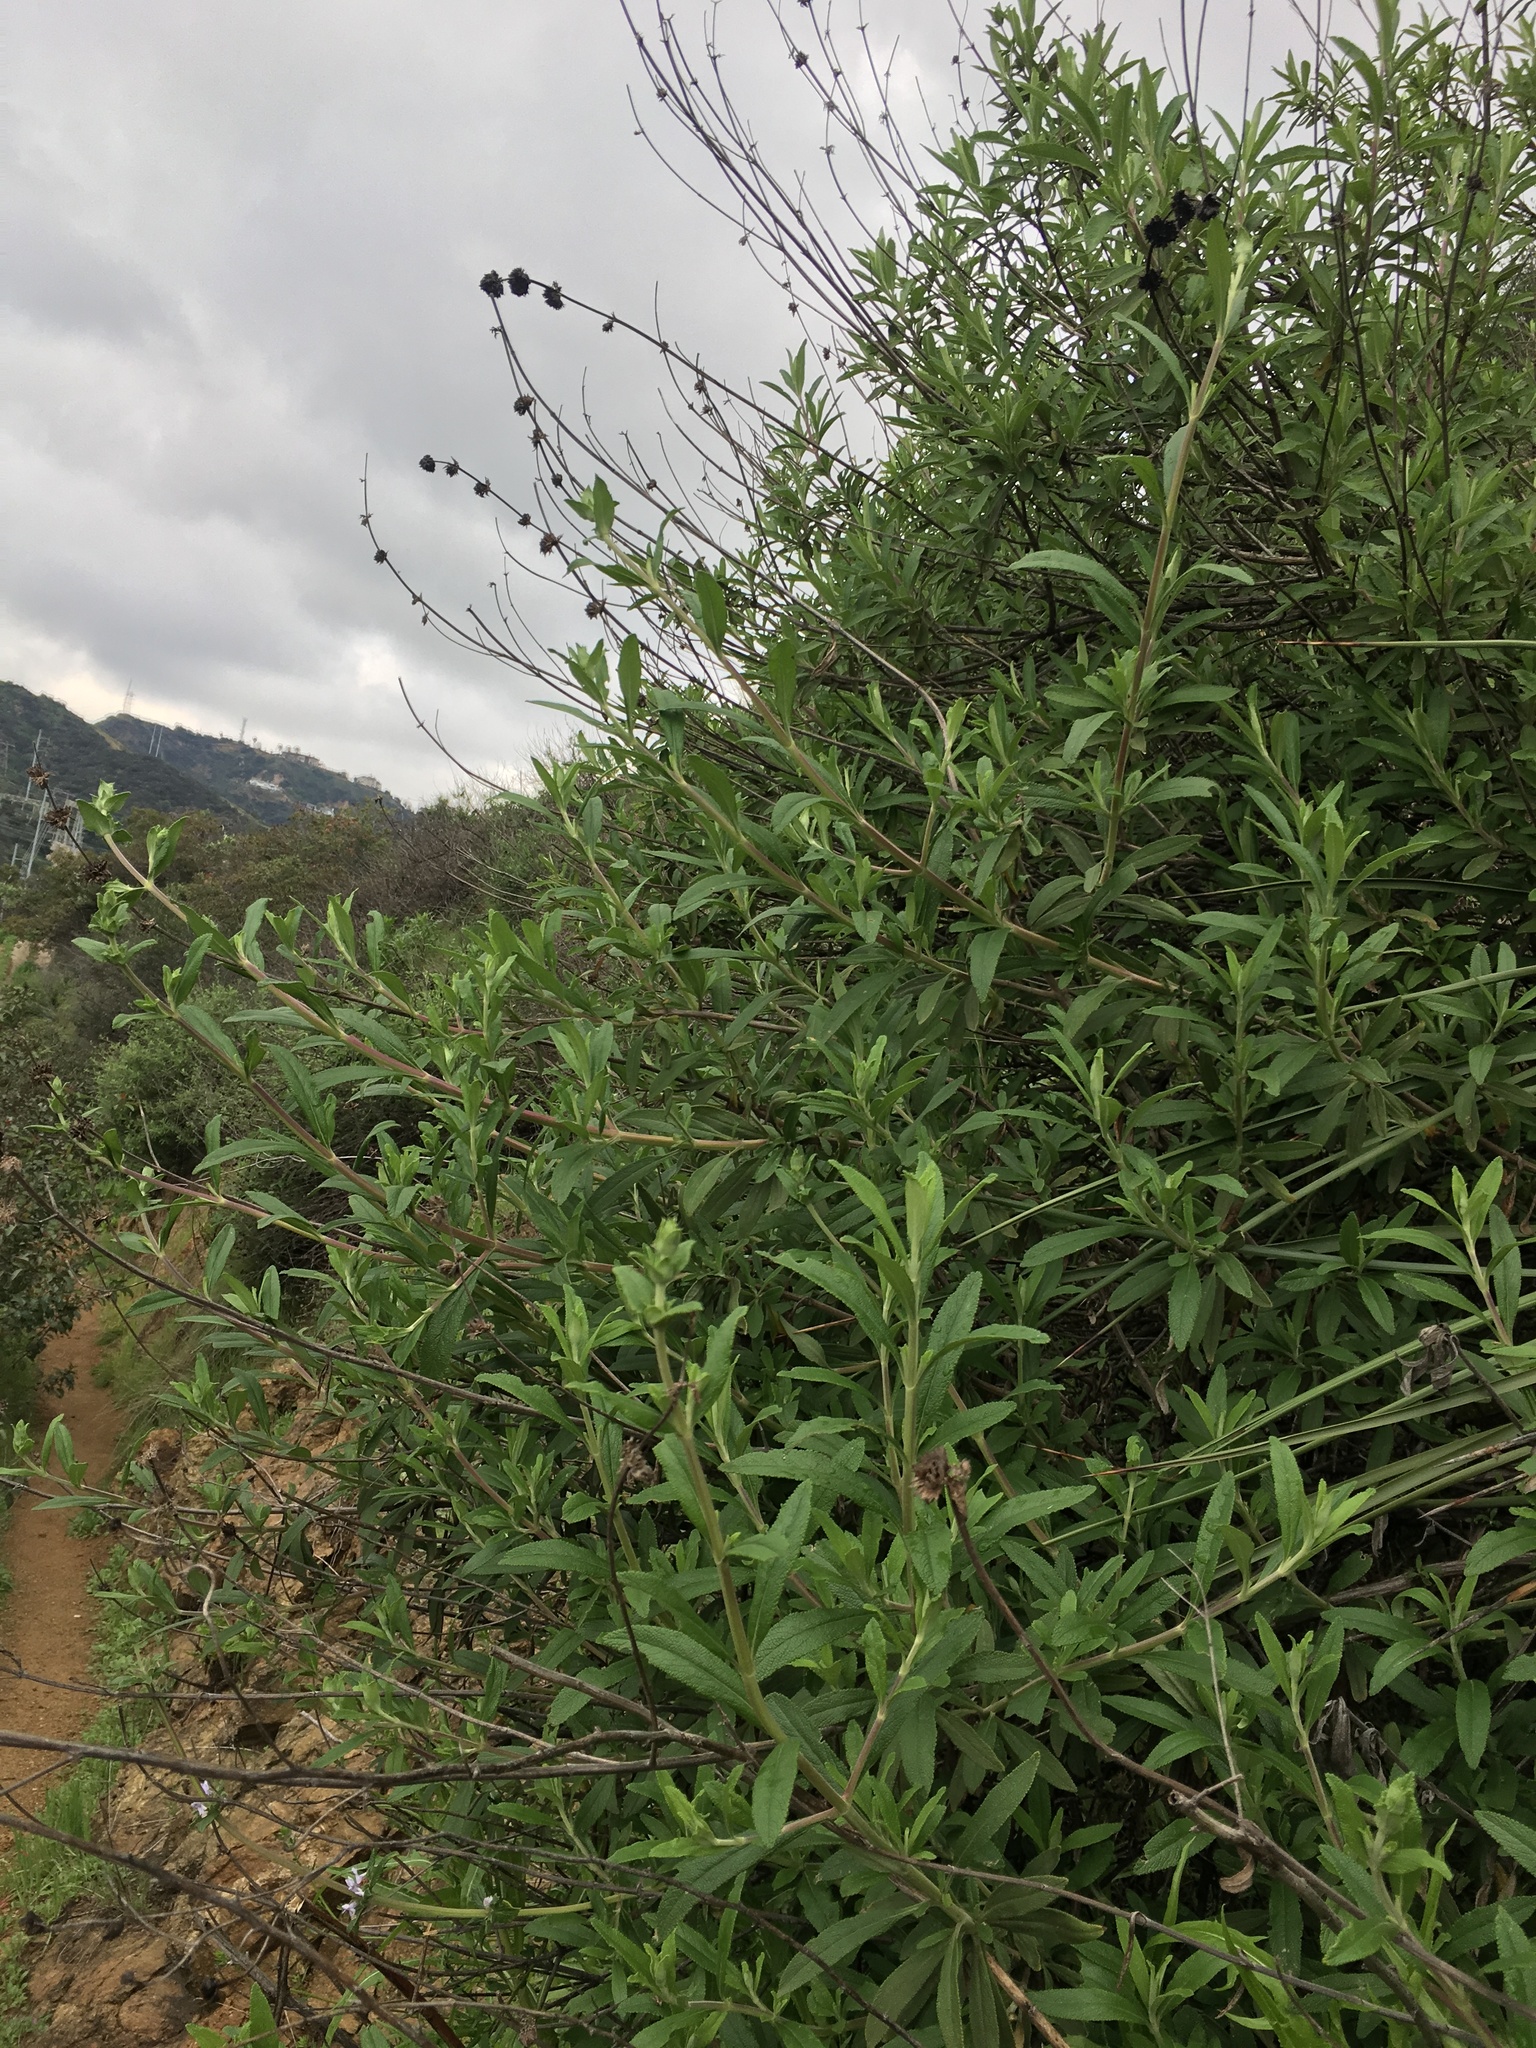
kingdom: Plantae
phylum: Tracheophyta
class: Magnoliopsida
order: Lamiales
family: Lamiaceae
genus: Salvia
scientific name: Salvia mellifera
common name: Black sage
